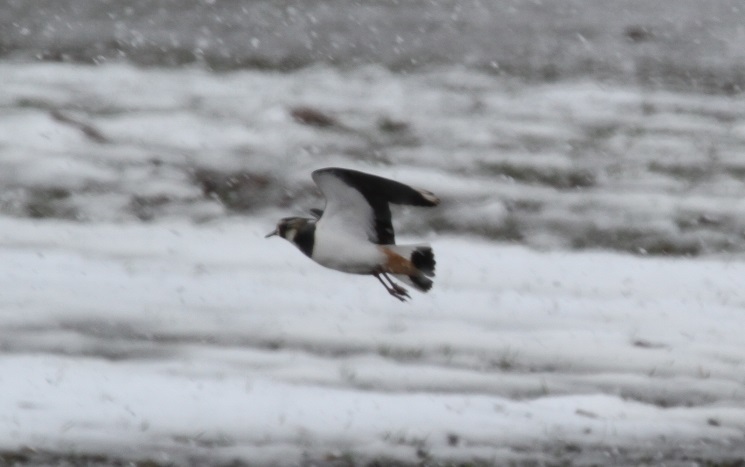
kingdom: Animalia
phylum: Chordata
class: Aves
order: Charadriiformes
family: Charadriidae
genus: Vanellus
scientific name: Vanellus vanellus
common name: Northern lapwing
